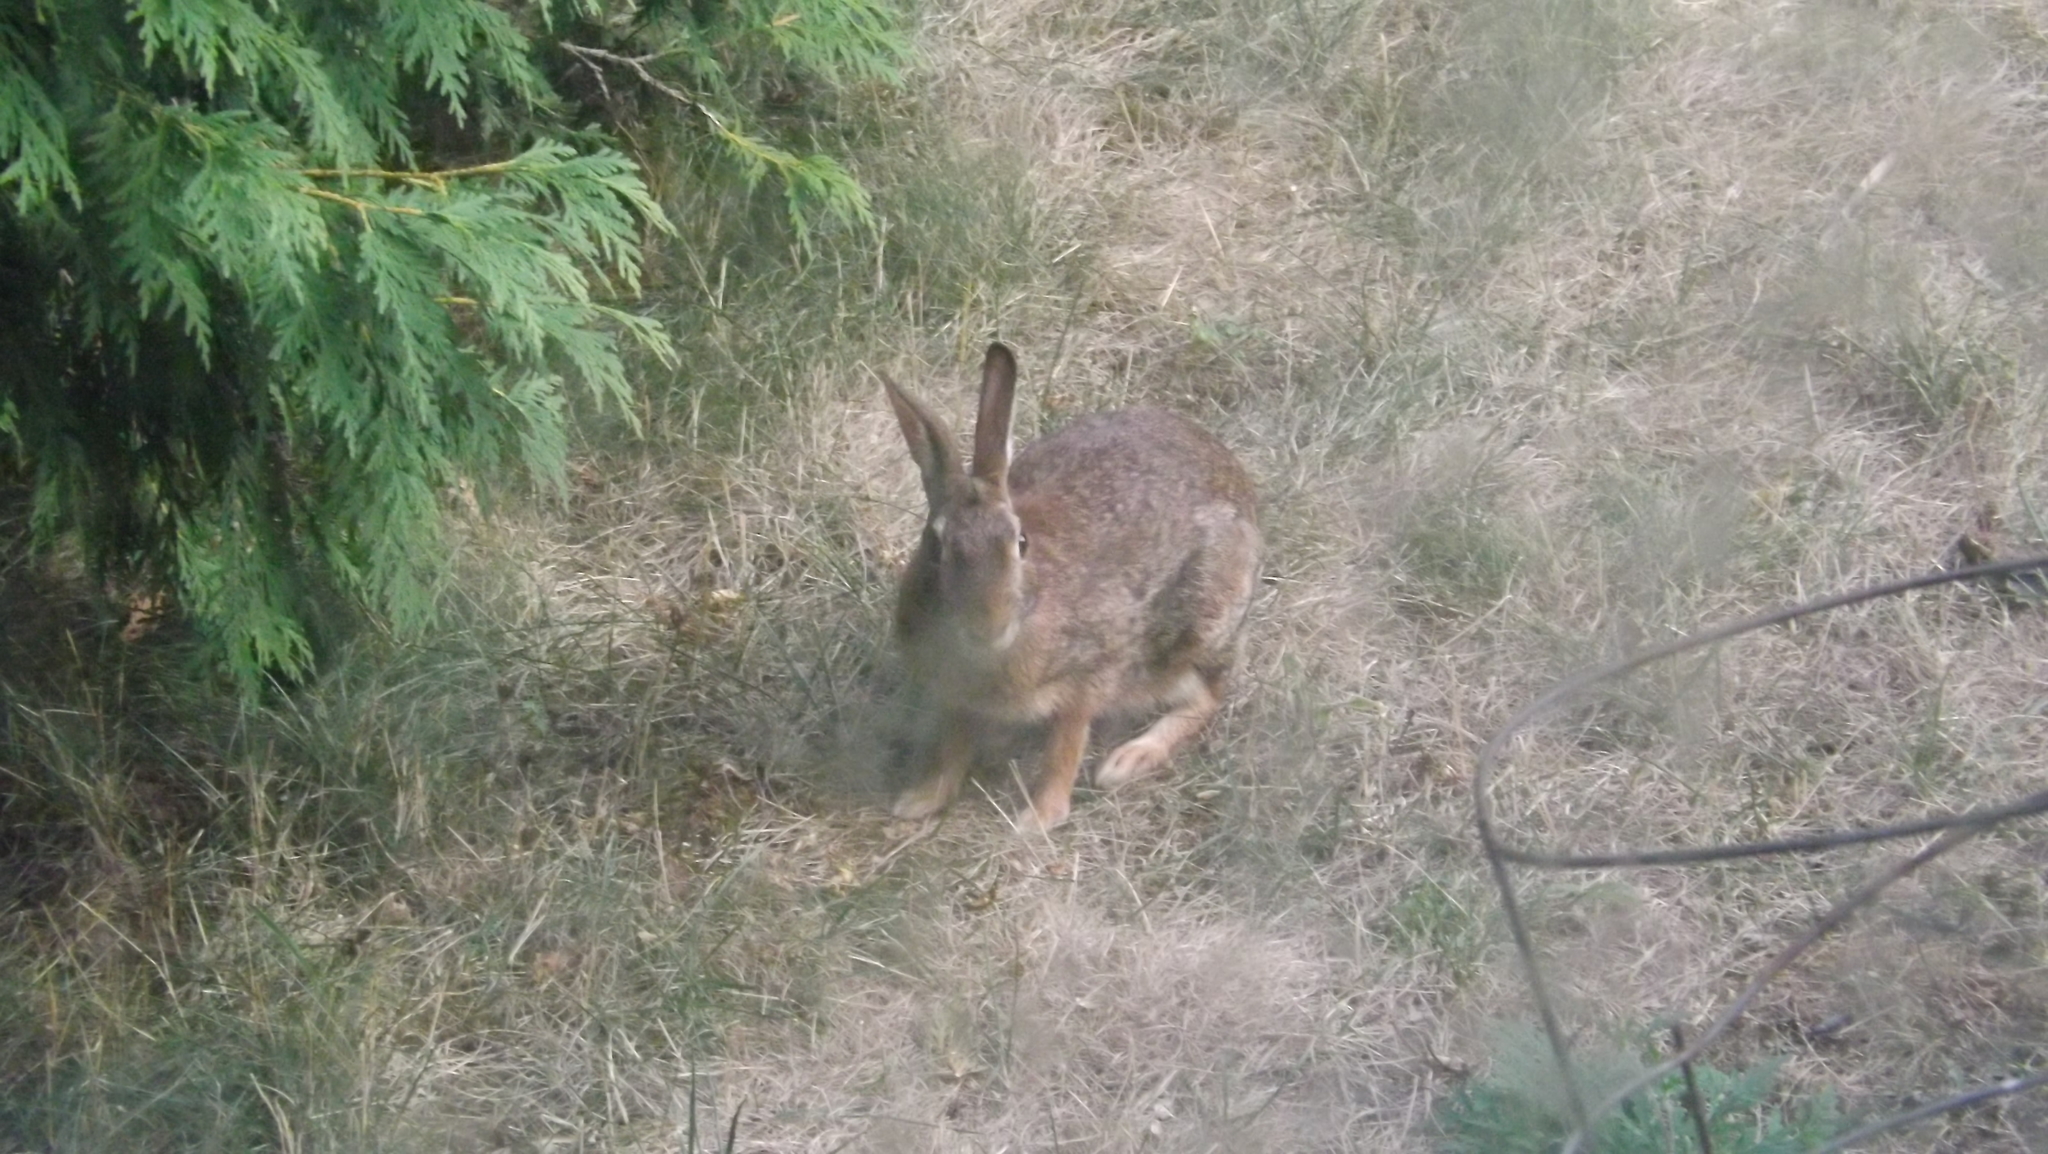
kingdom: Animalia
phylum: Chordata
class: Mammalia
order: Lagomorpha
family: Leporidae
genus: Sylvilagus
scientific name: Sylvilagus floridanus
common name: Eastern cottontail
